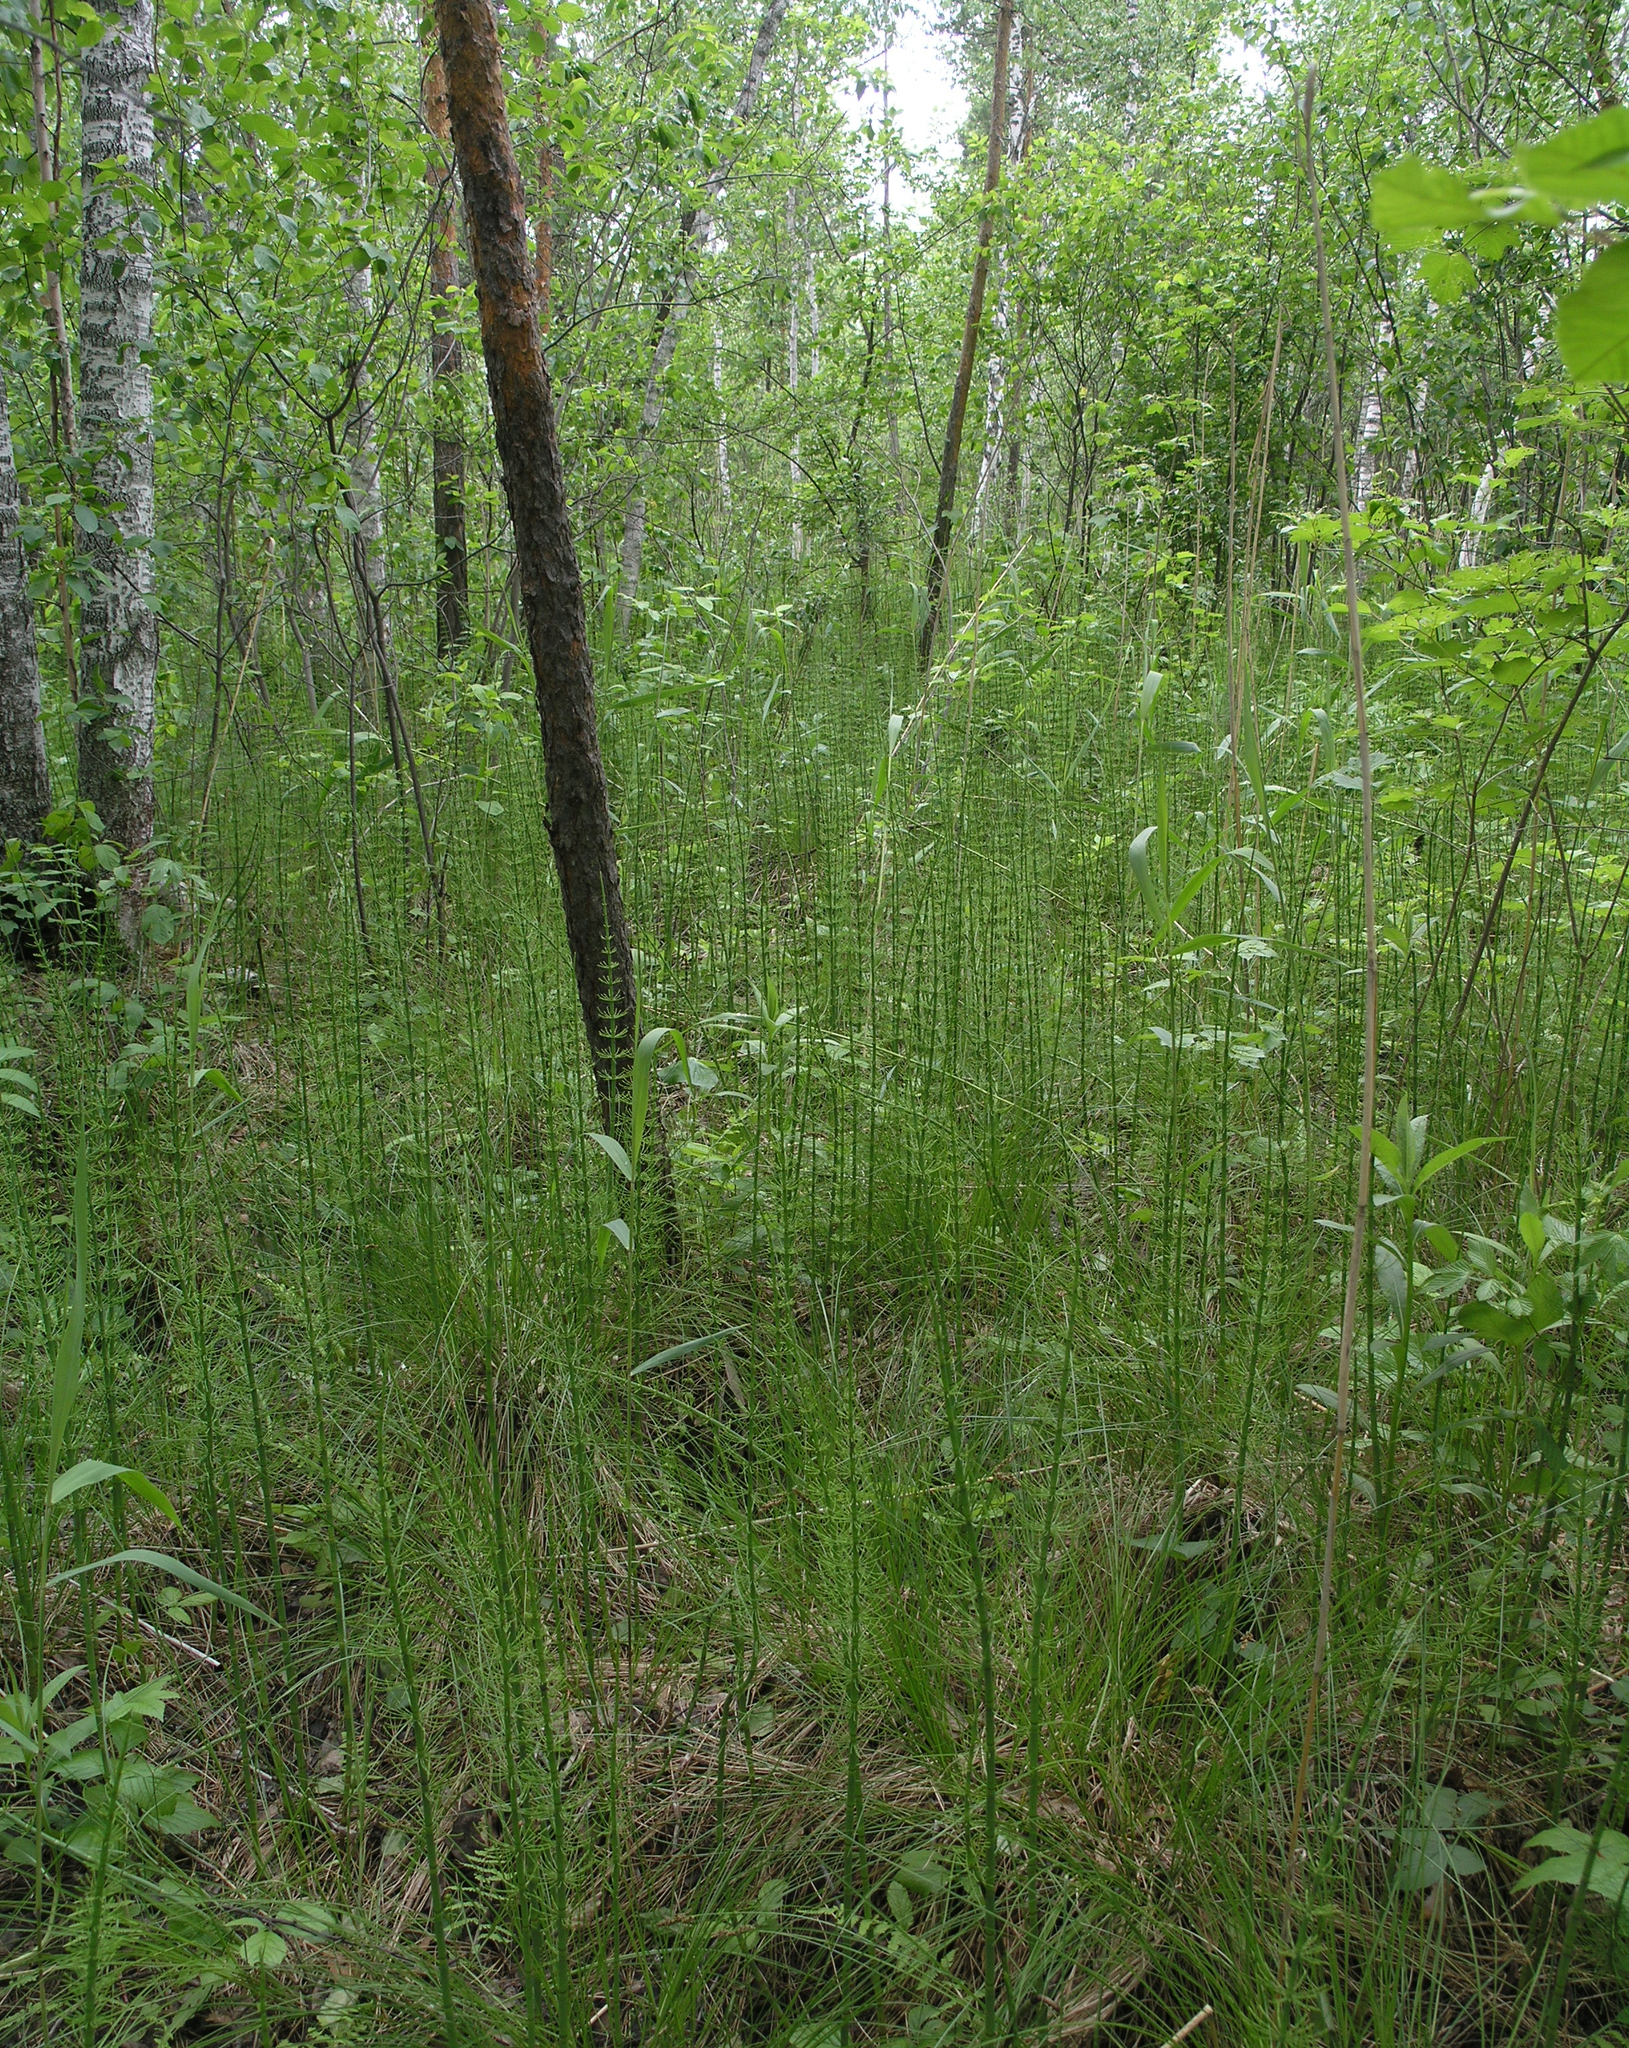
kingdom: Plantae
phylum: Tracheophyta
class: Polypodiopsida
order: Equisetales
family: Equisetaceae
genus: Equisetum
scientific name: Equisetum fluviatile
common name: Water horsetail
